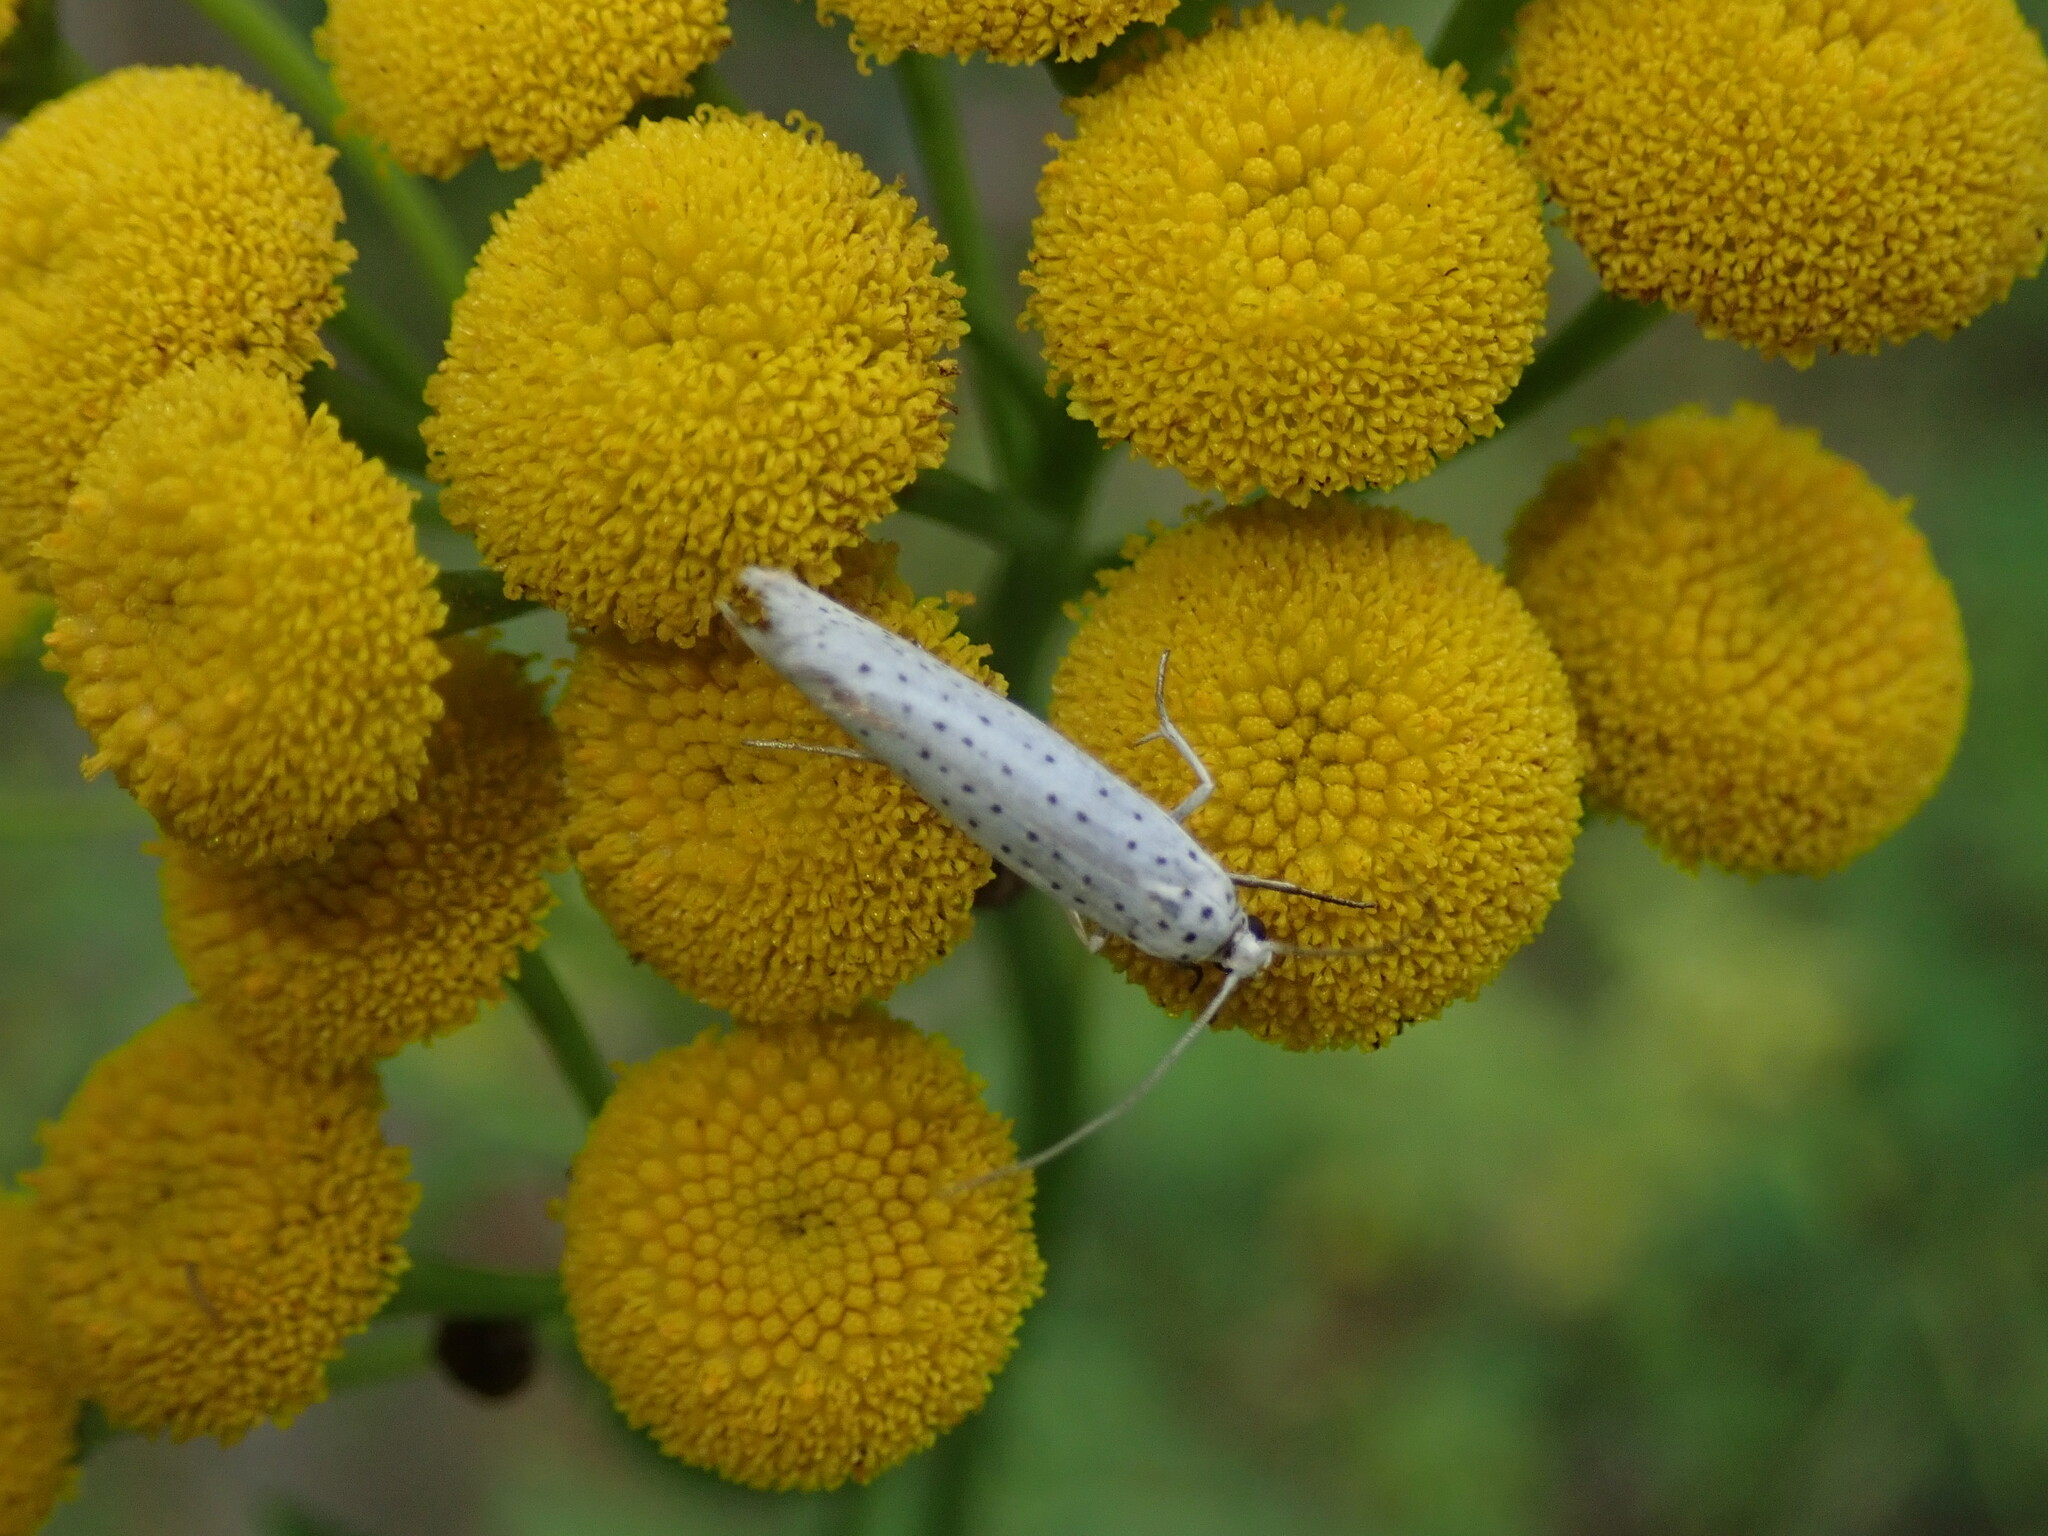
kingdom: Animalia
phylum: Arthropoda
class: Insecta
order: Lepidoptera
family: Yponomeutidae
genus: Yponomeuta
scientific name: Yponomeuta evonymella
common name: Bird-cherry ermine
